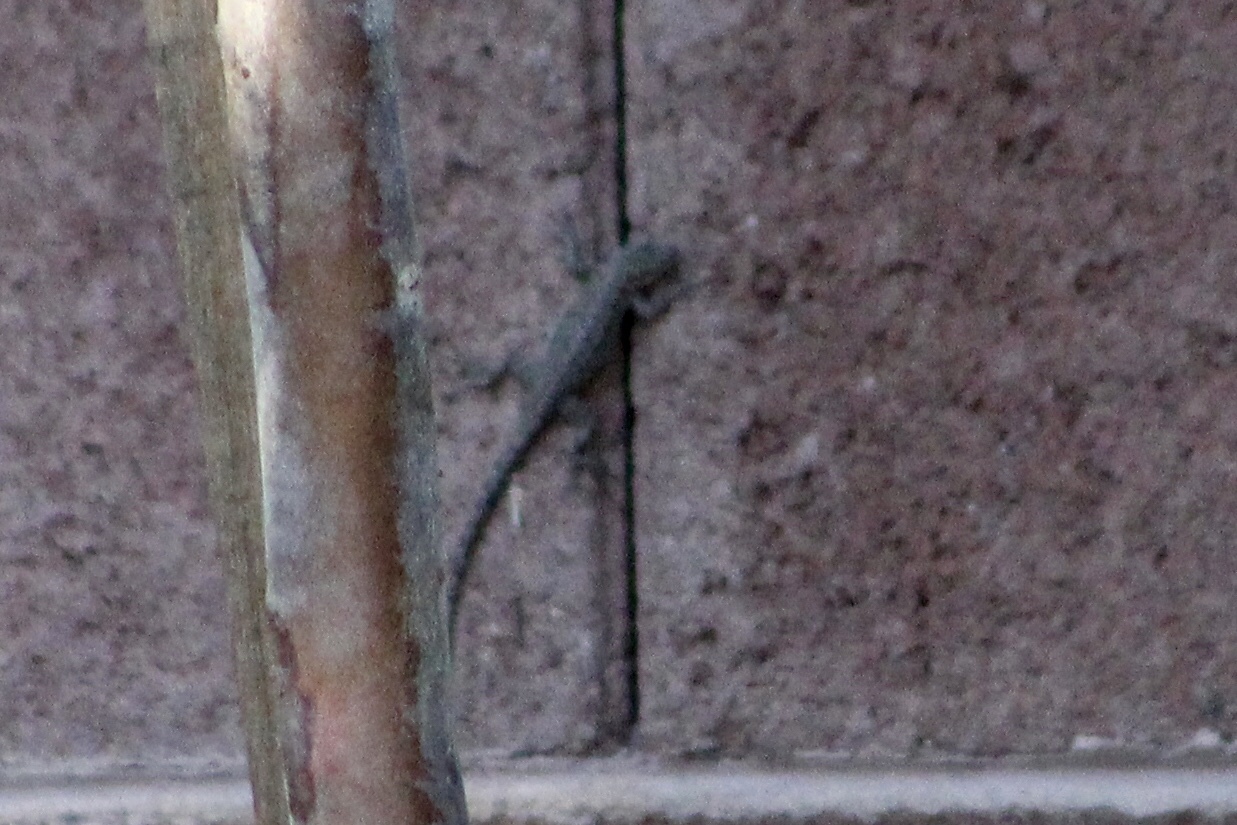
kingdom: Animalia
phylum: Chordata
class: Squamata
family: Phrynosomatidae
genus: Urosaurus
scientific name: Urosaurus ornatus
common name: Ornate tree lizard
